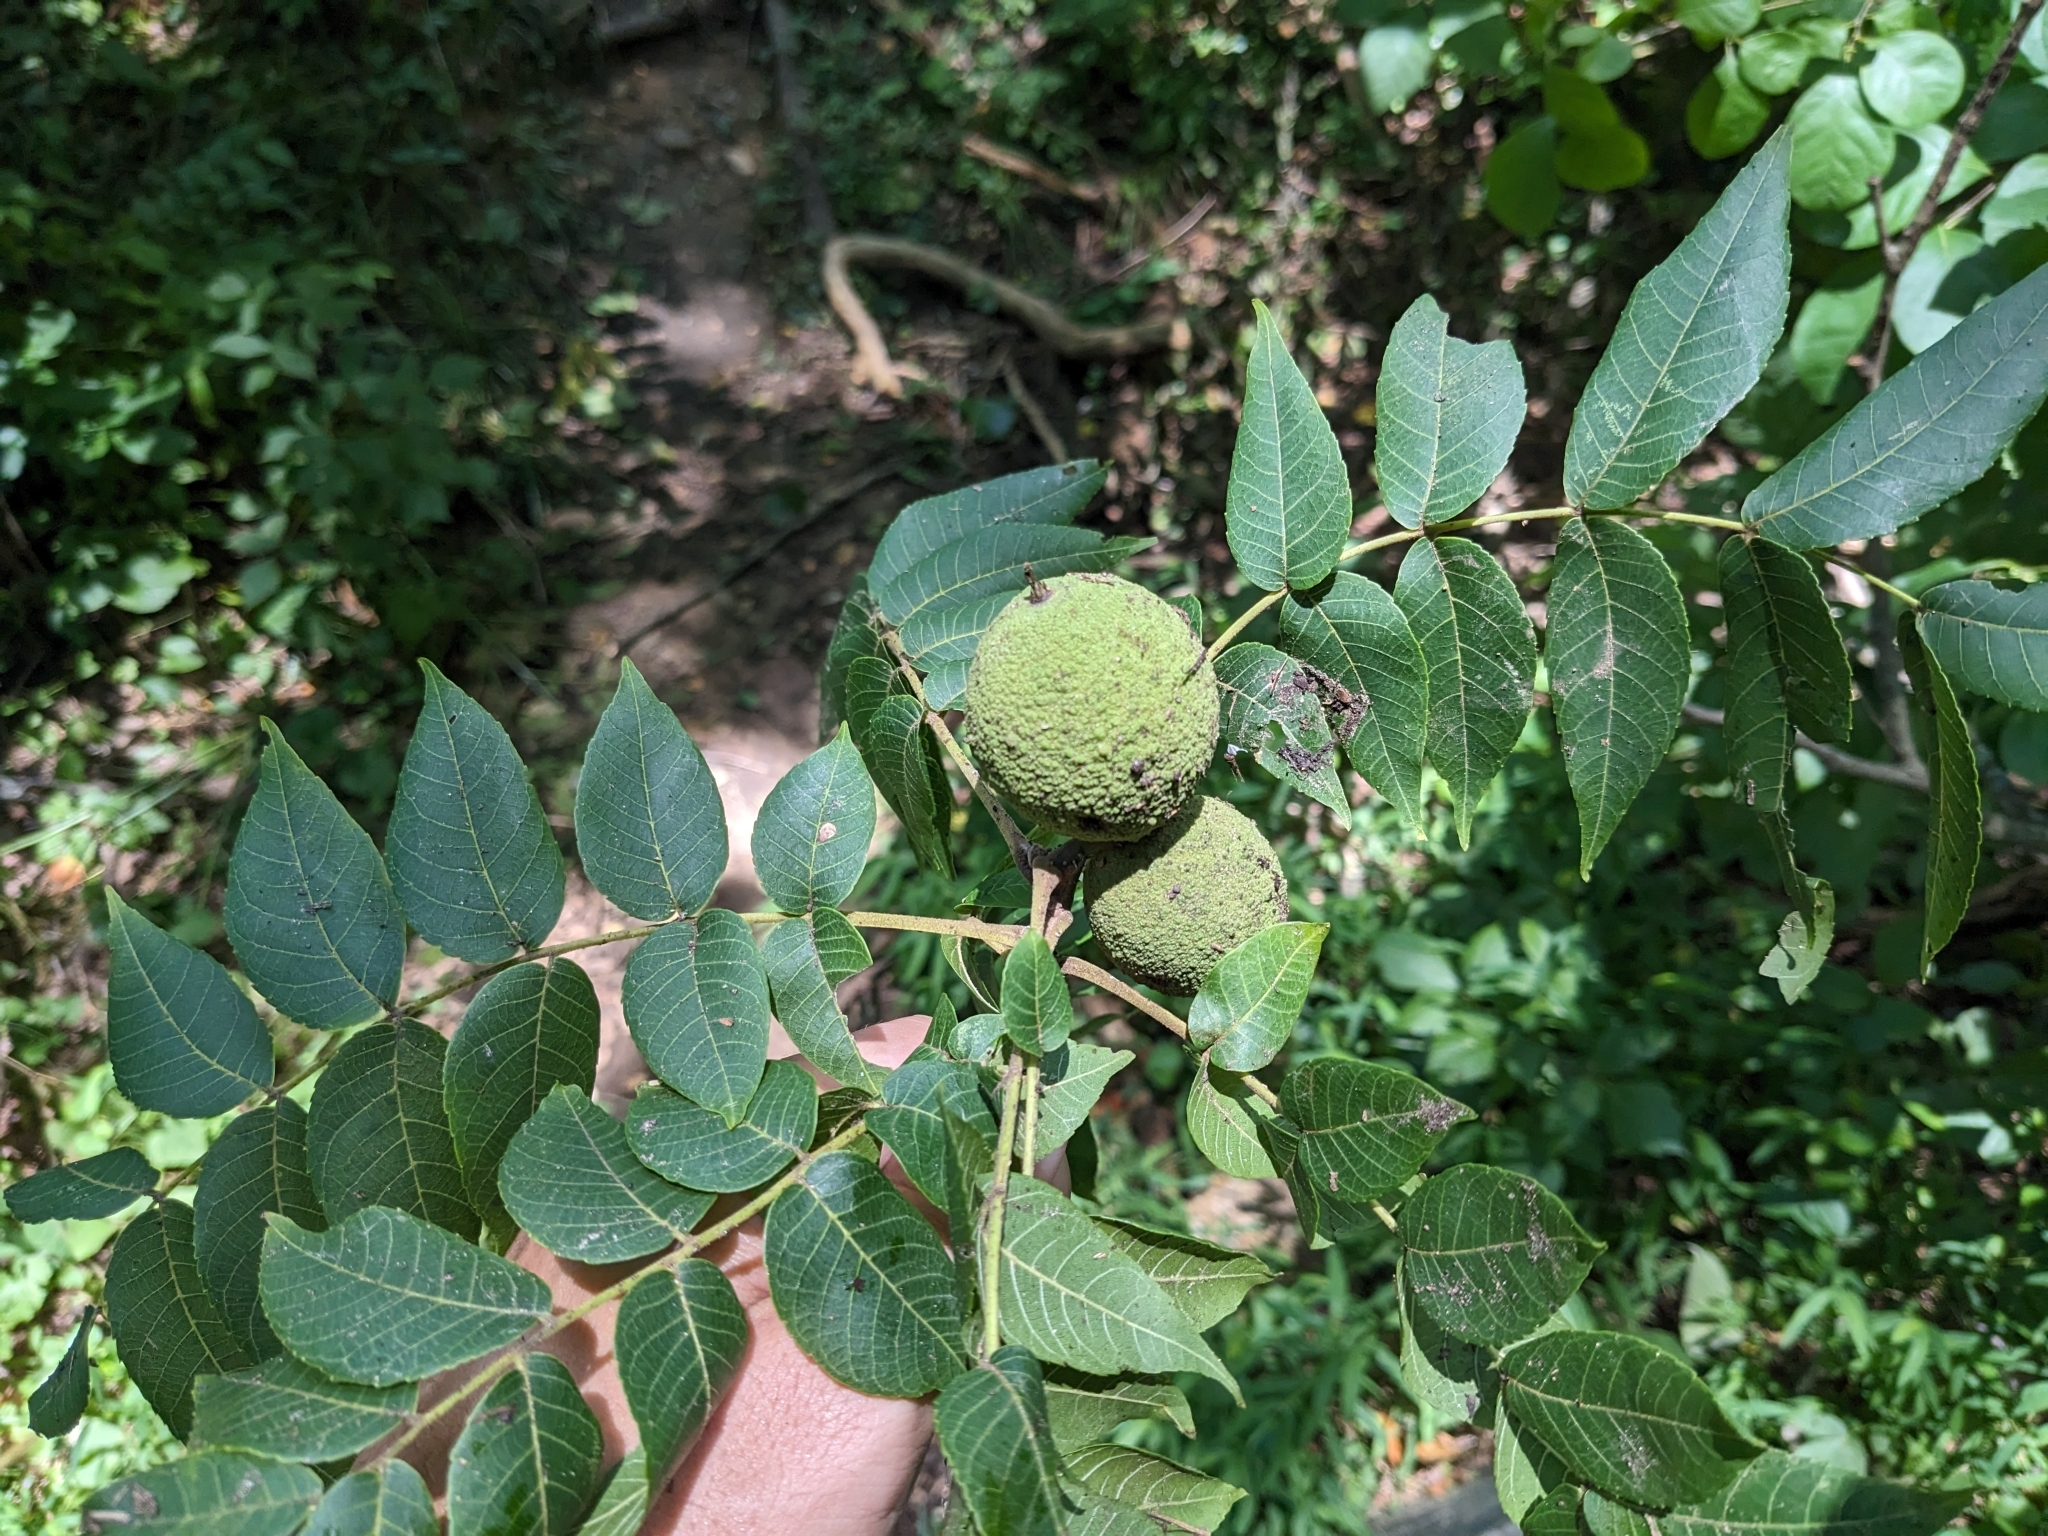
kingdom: Plantae
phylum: Tracheophyta
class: Magnoliopsida
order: Fagales
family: Juglandaceae
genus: Juglans
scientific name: Juglans nigra
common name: Black walnut
